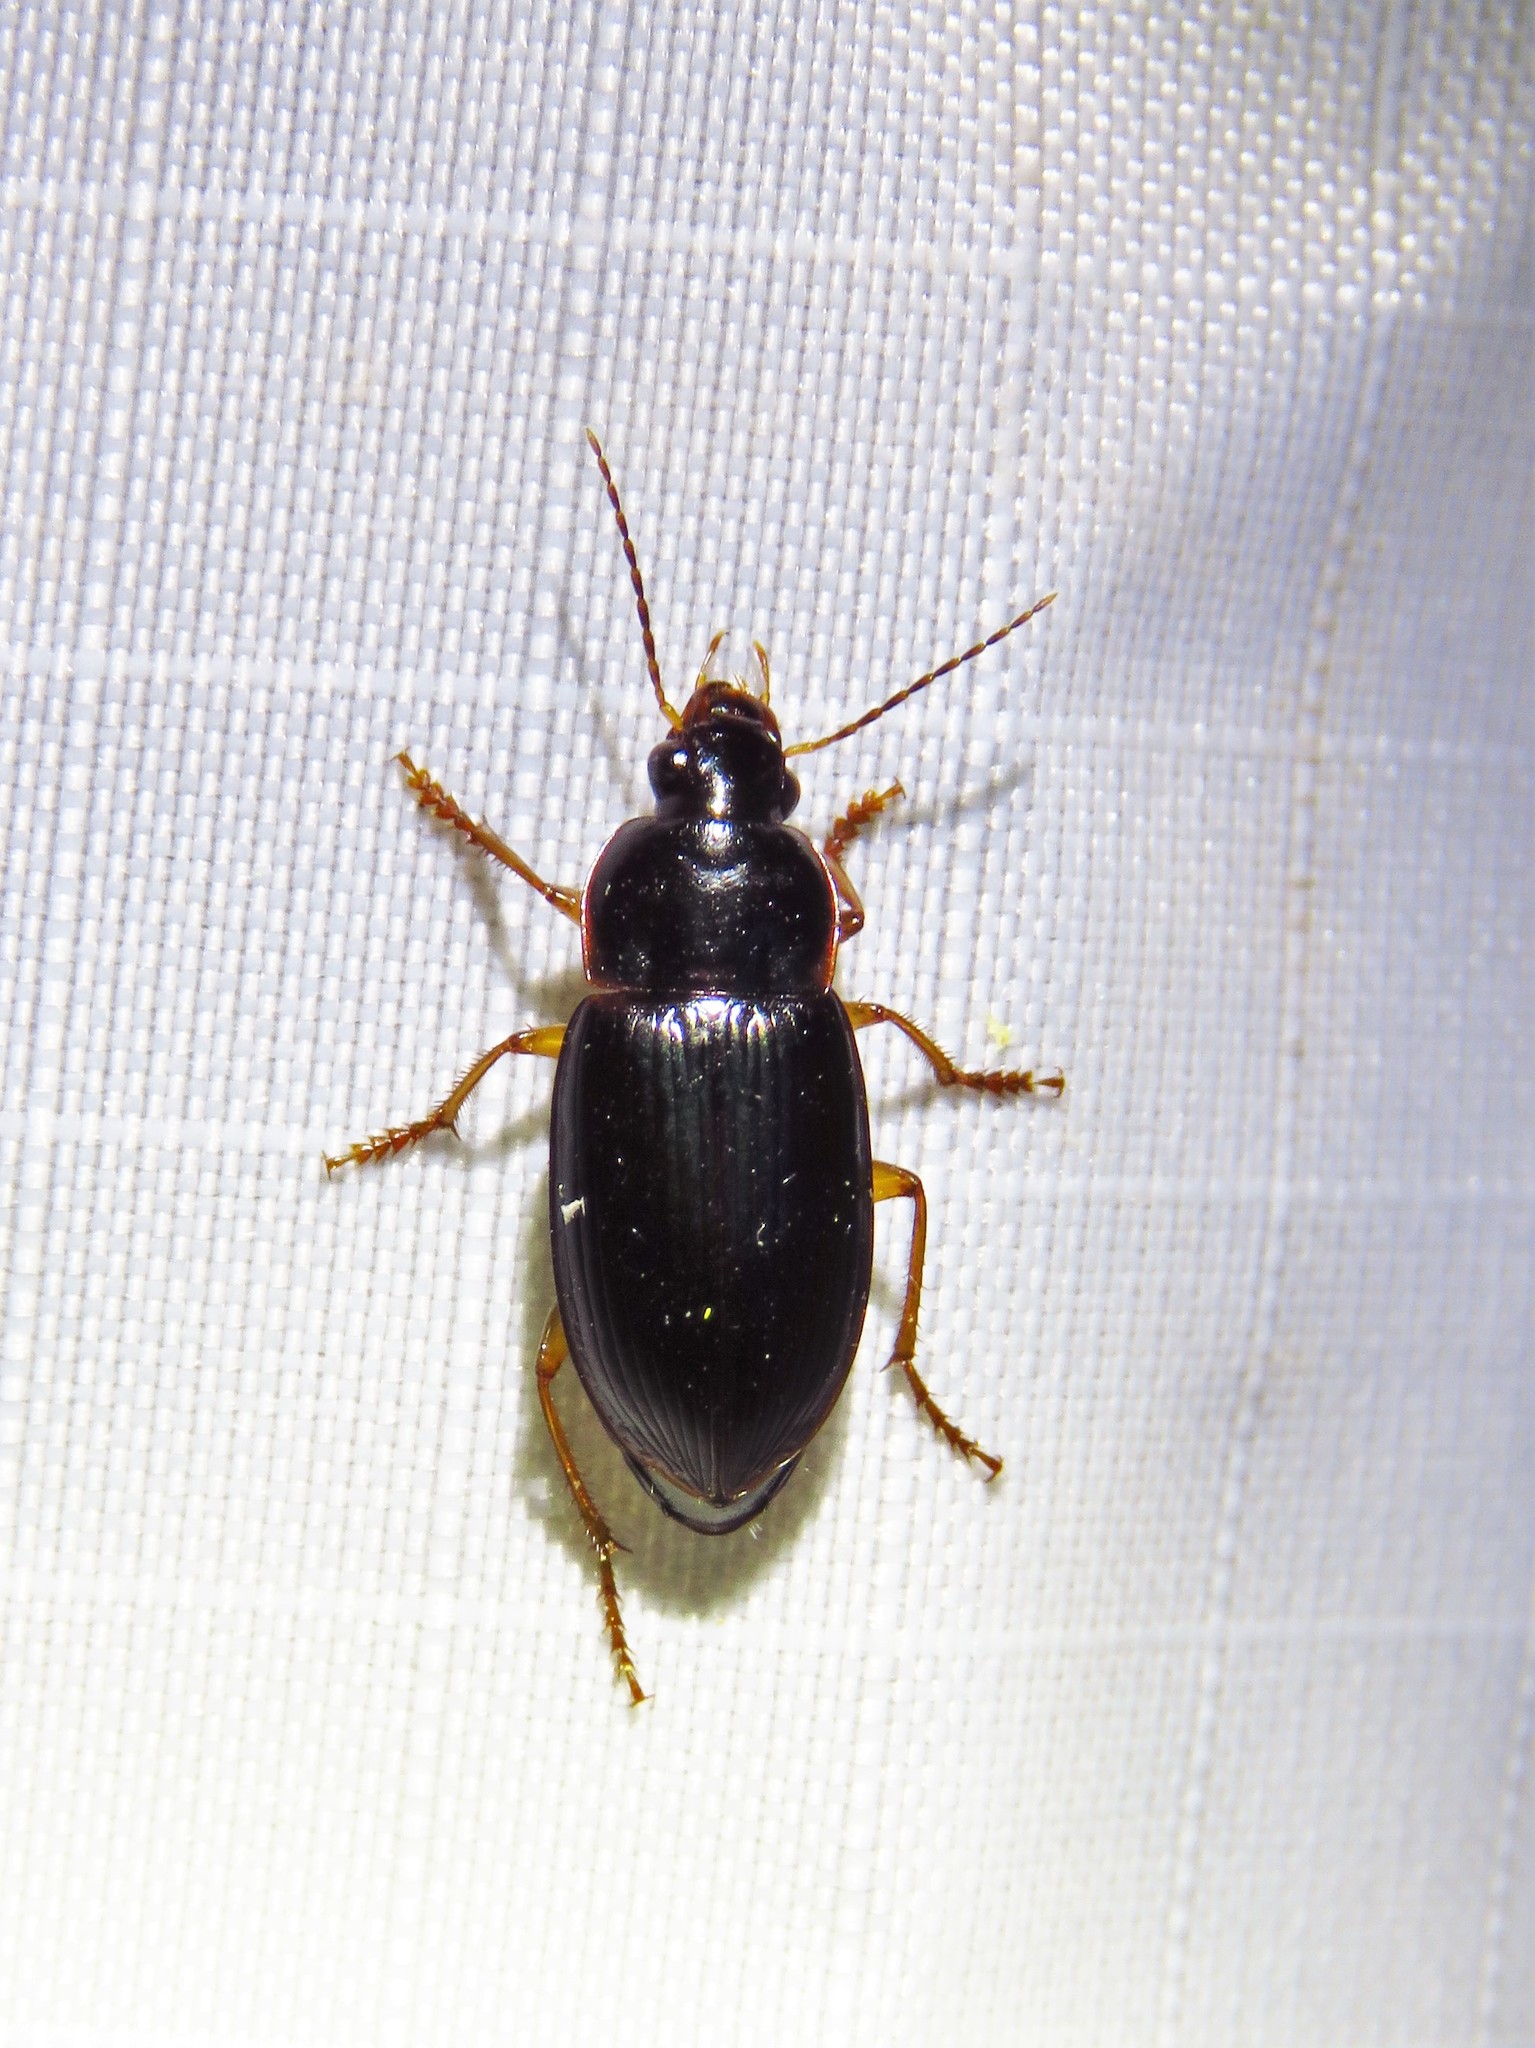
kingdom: Animalia
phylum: Arthropoda
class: Insecta
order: Coleoptera
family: Carabidae
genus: Notiobia
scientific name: Notiobia terminata
